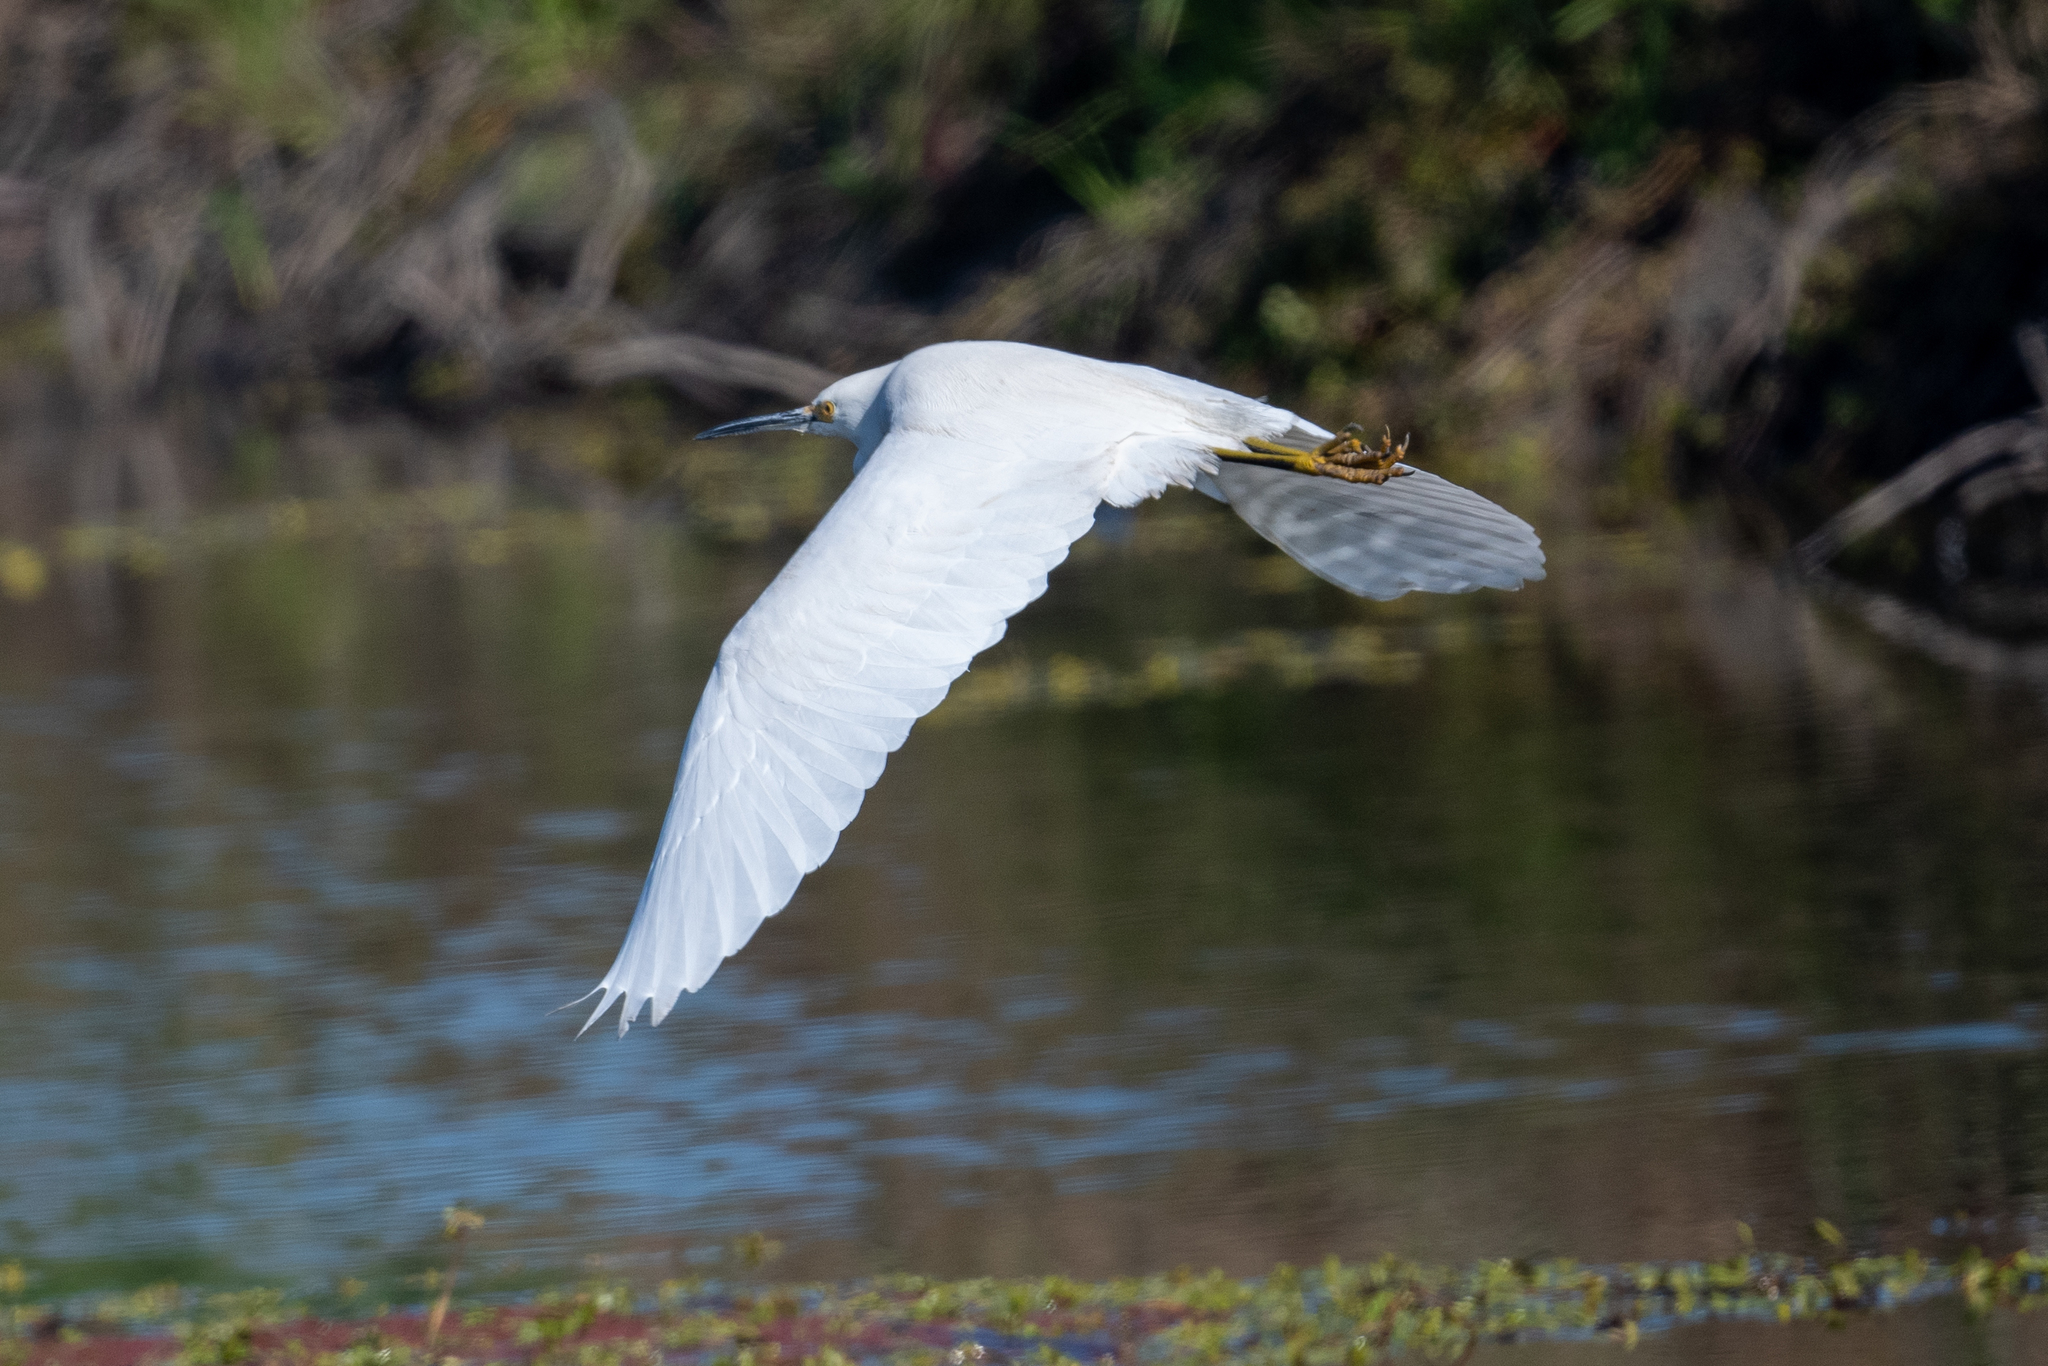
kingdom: Animalia
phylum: Chordata
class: Aves
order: Pelecaniformes
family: Ardeidae
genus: Egretta
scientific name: Egretta thula
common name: Snowy egret
